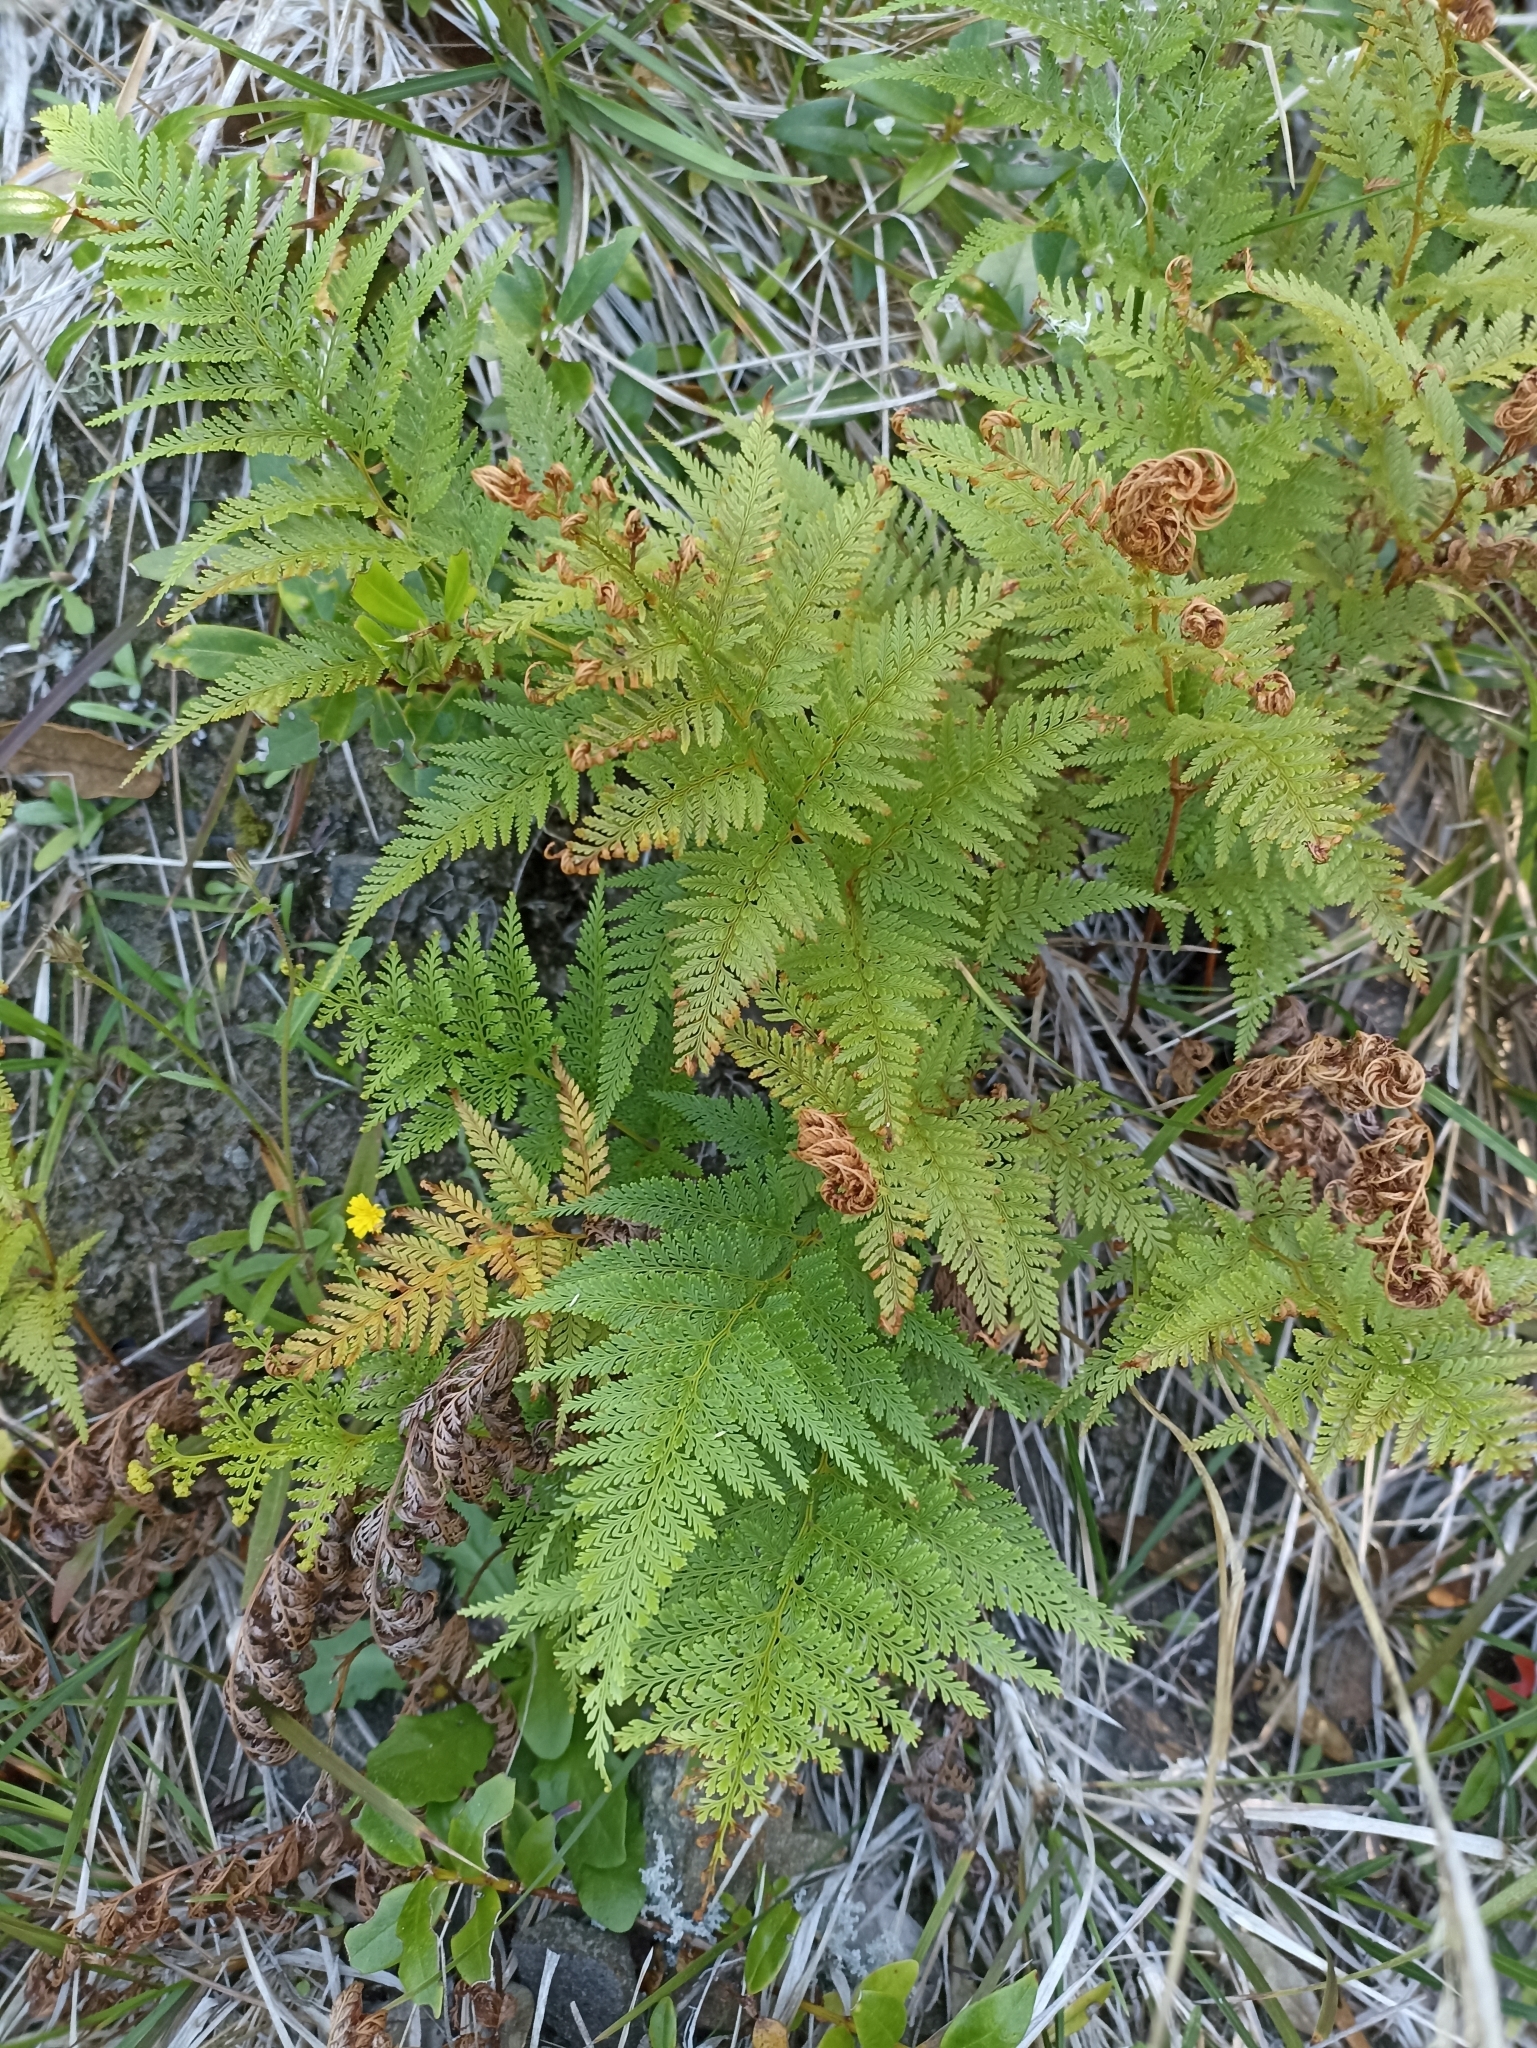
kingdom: Plantae
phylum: Tracheophyta
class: Polypodiopsida
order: Polypodiales
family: Dennstaedtiaceae
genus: Paesia
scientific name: Paesia scaberula
